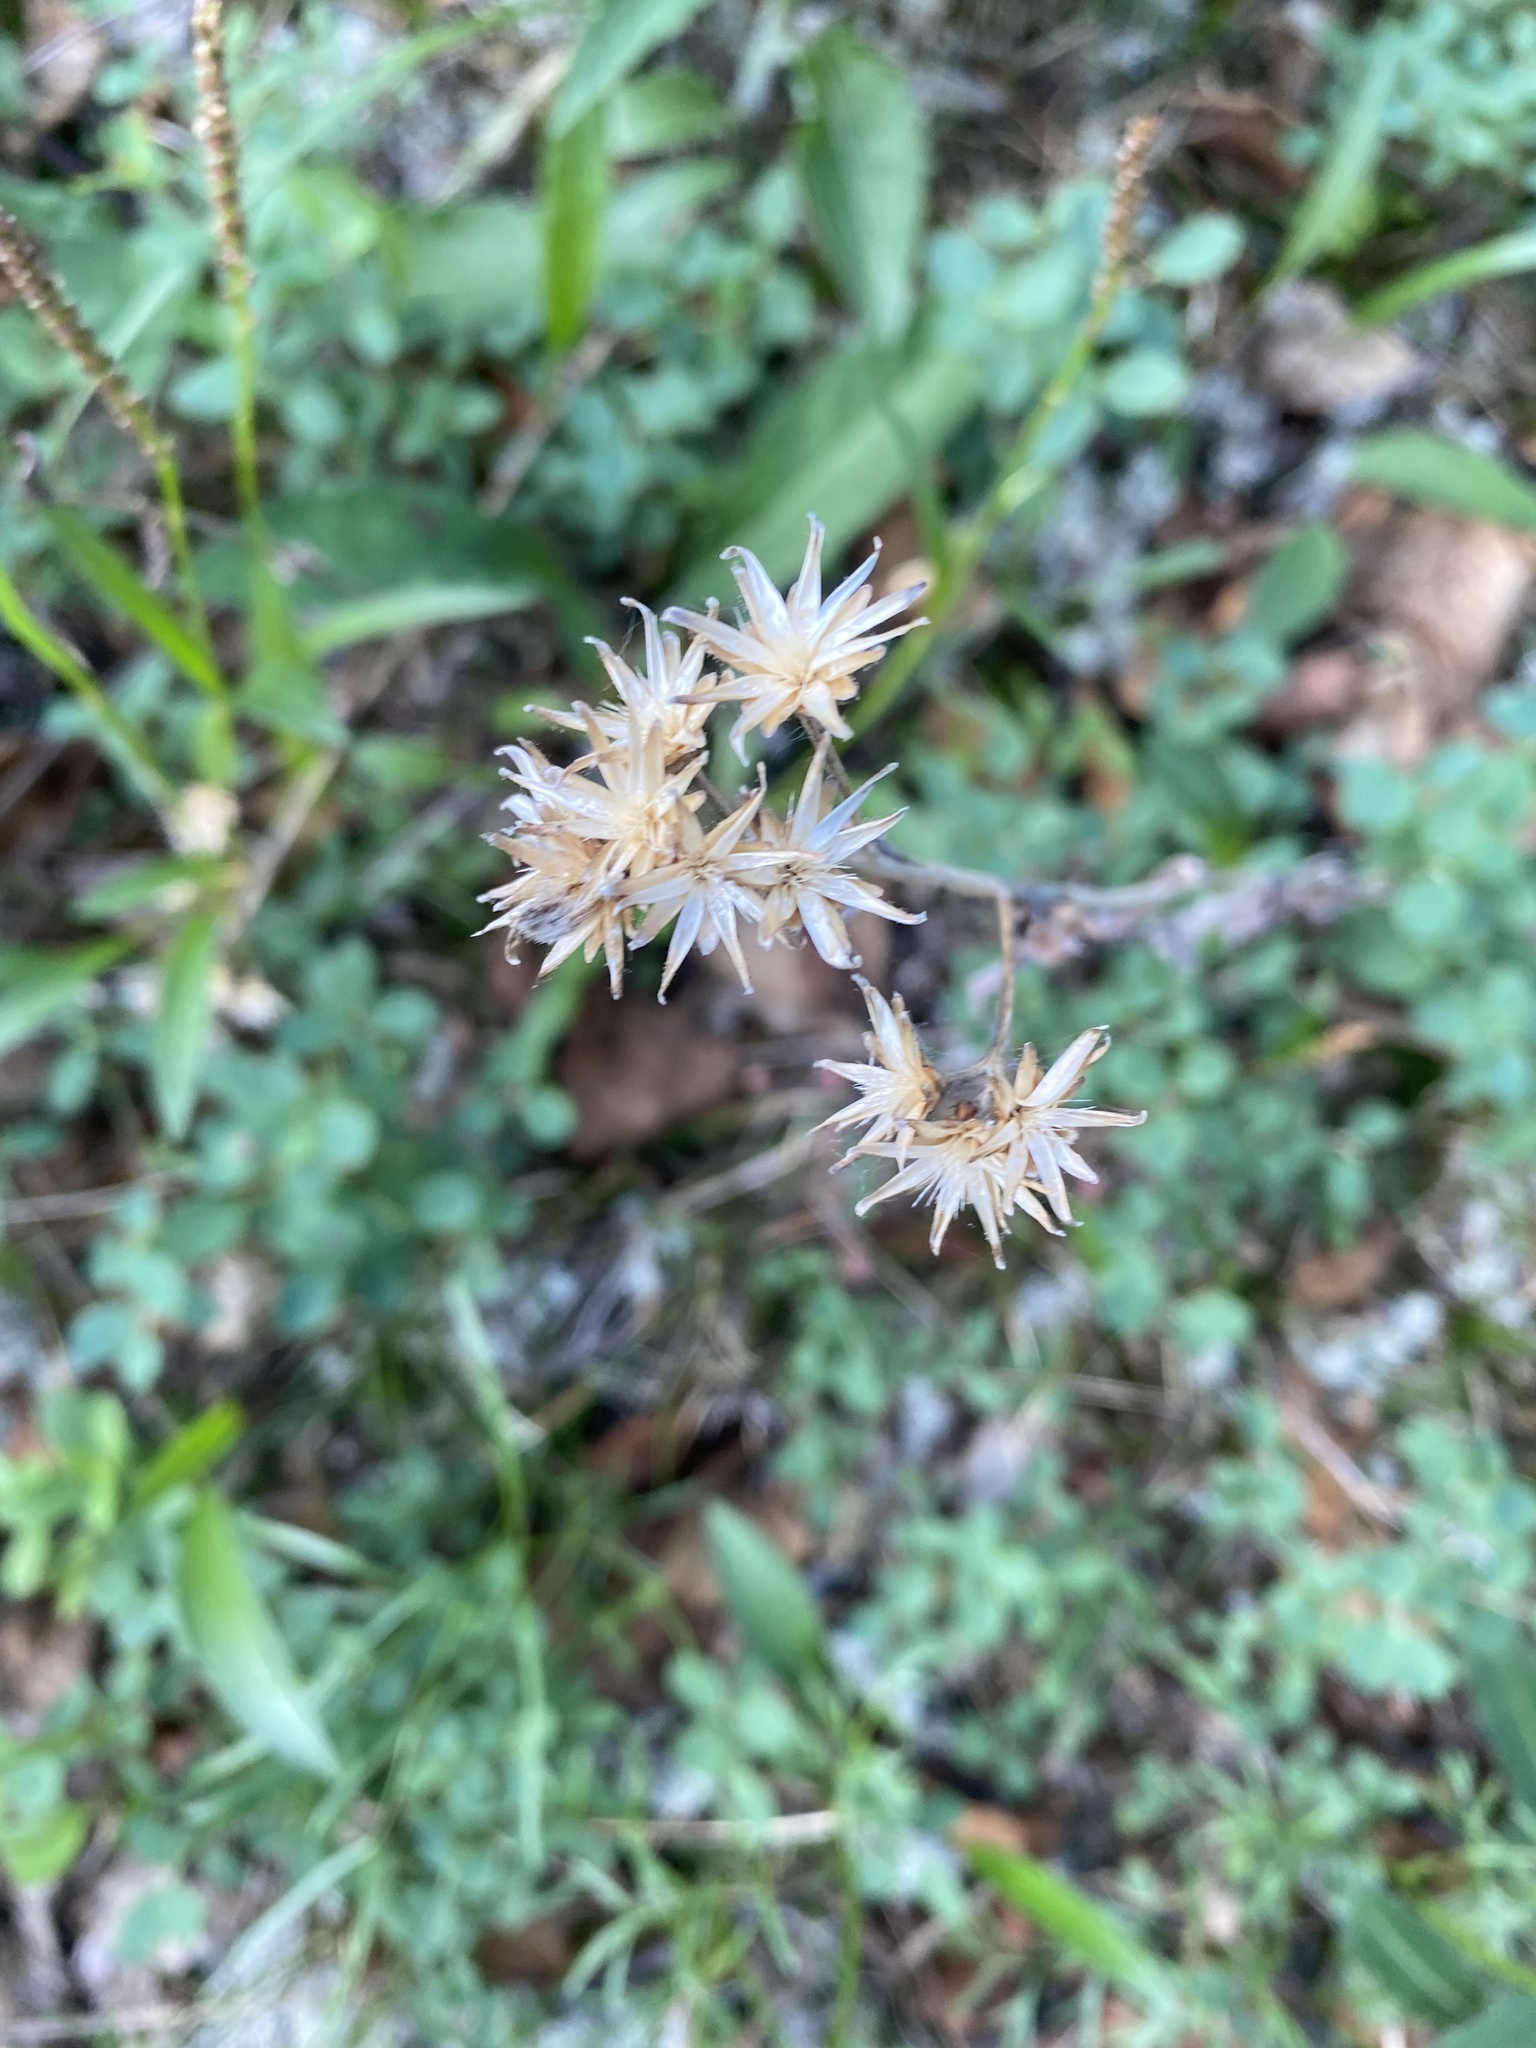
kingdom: Plantae
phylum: Tracheophyta
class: Magnoliopsida
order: Asterales
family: Asteraceae
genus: Saussurea
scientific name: Saussurea parviflora
